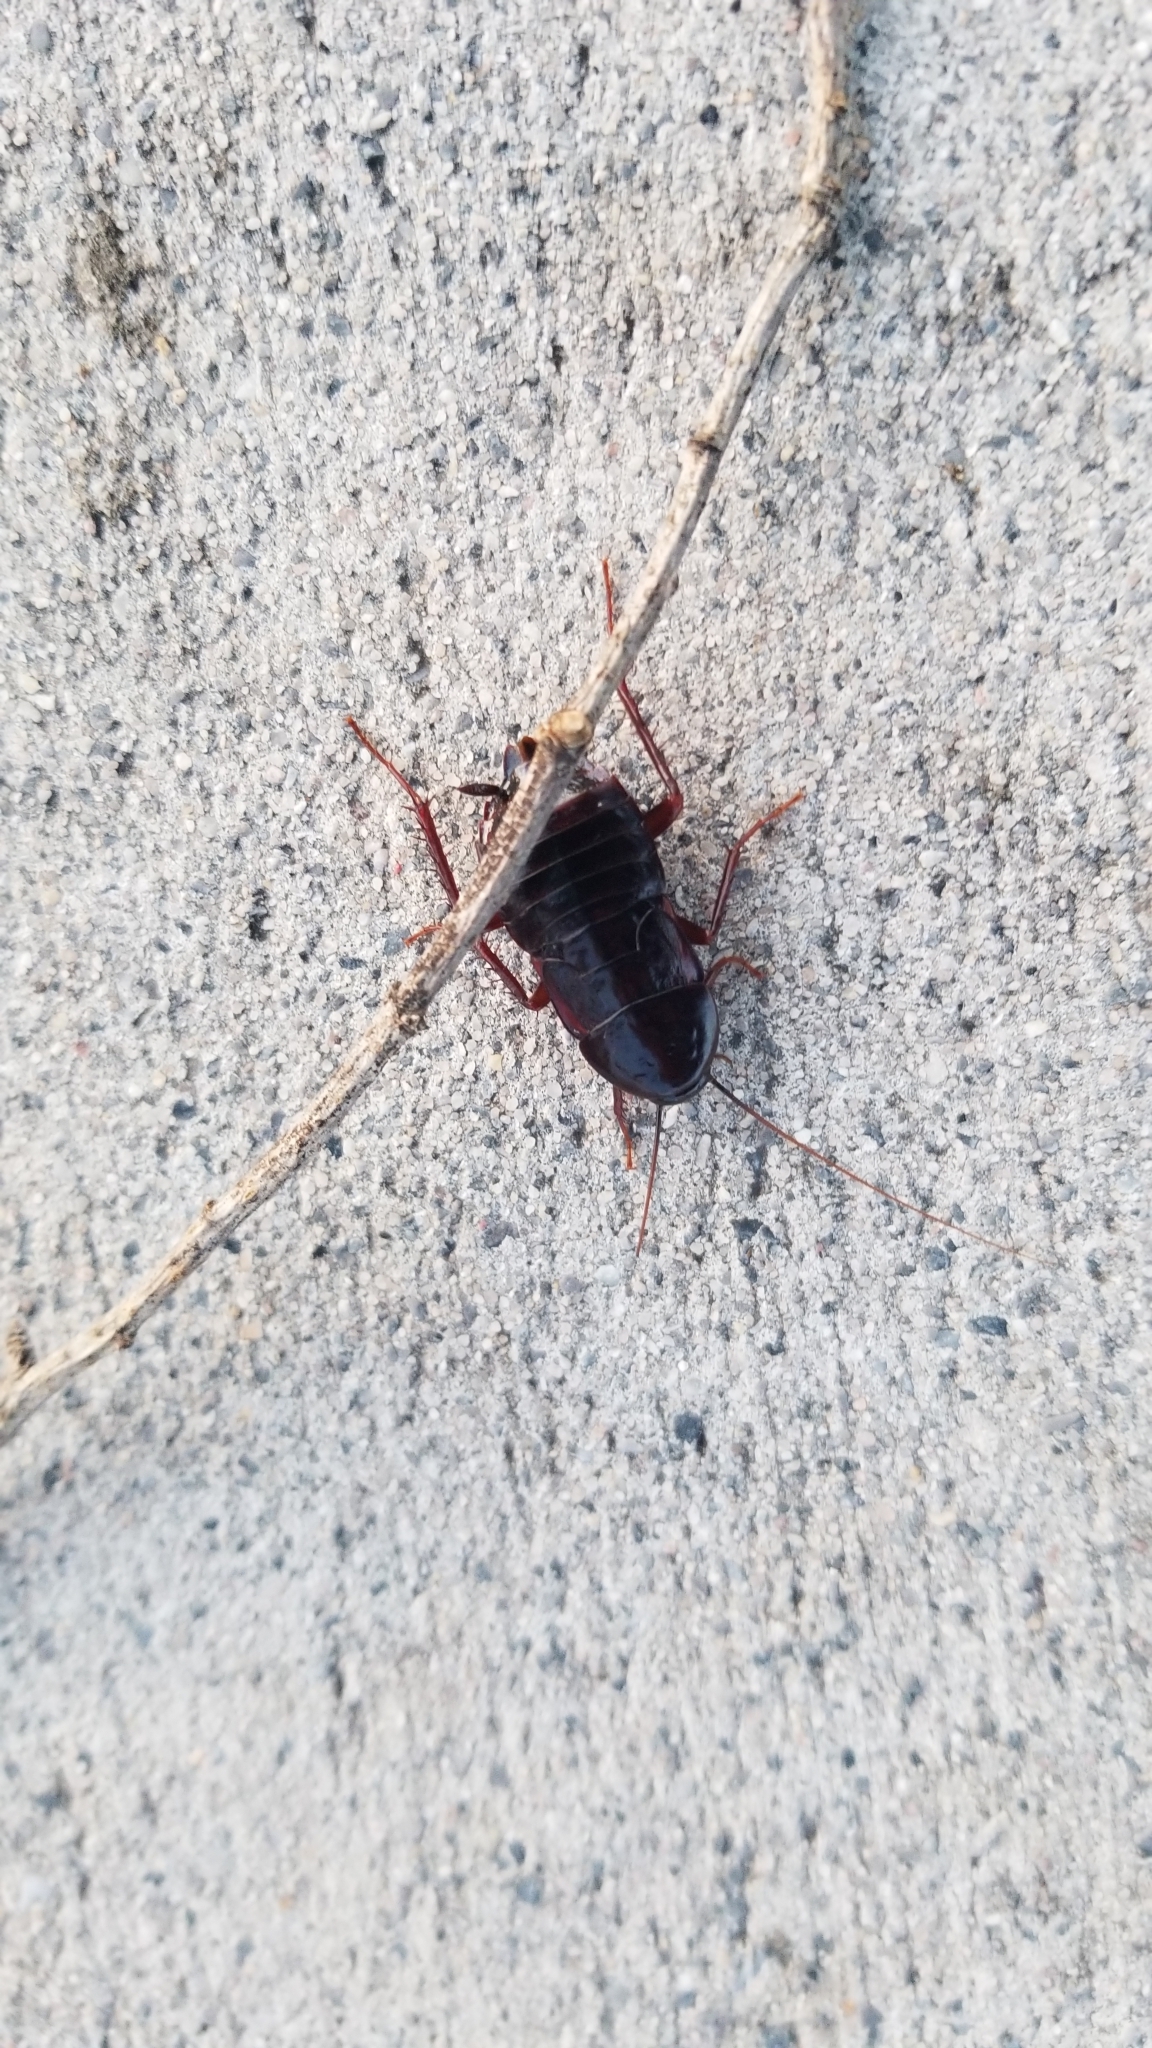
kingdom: Animalia
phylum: Arthropoda
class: Insecta
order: Blattodea
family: Blattidae
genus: Blatta
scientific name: Blatta orientalis
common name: Oriental cockroach
